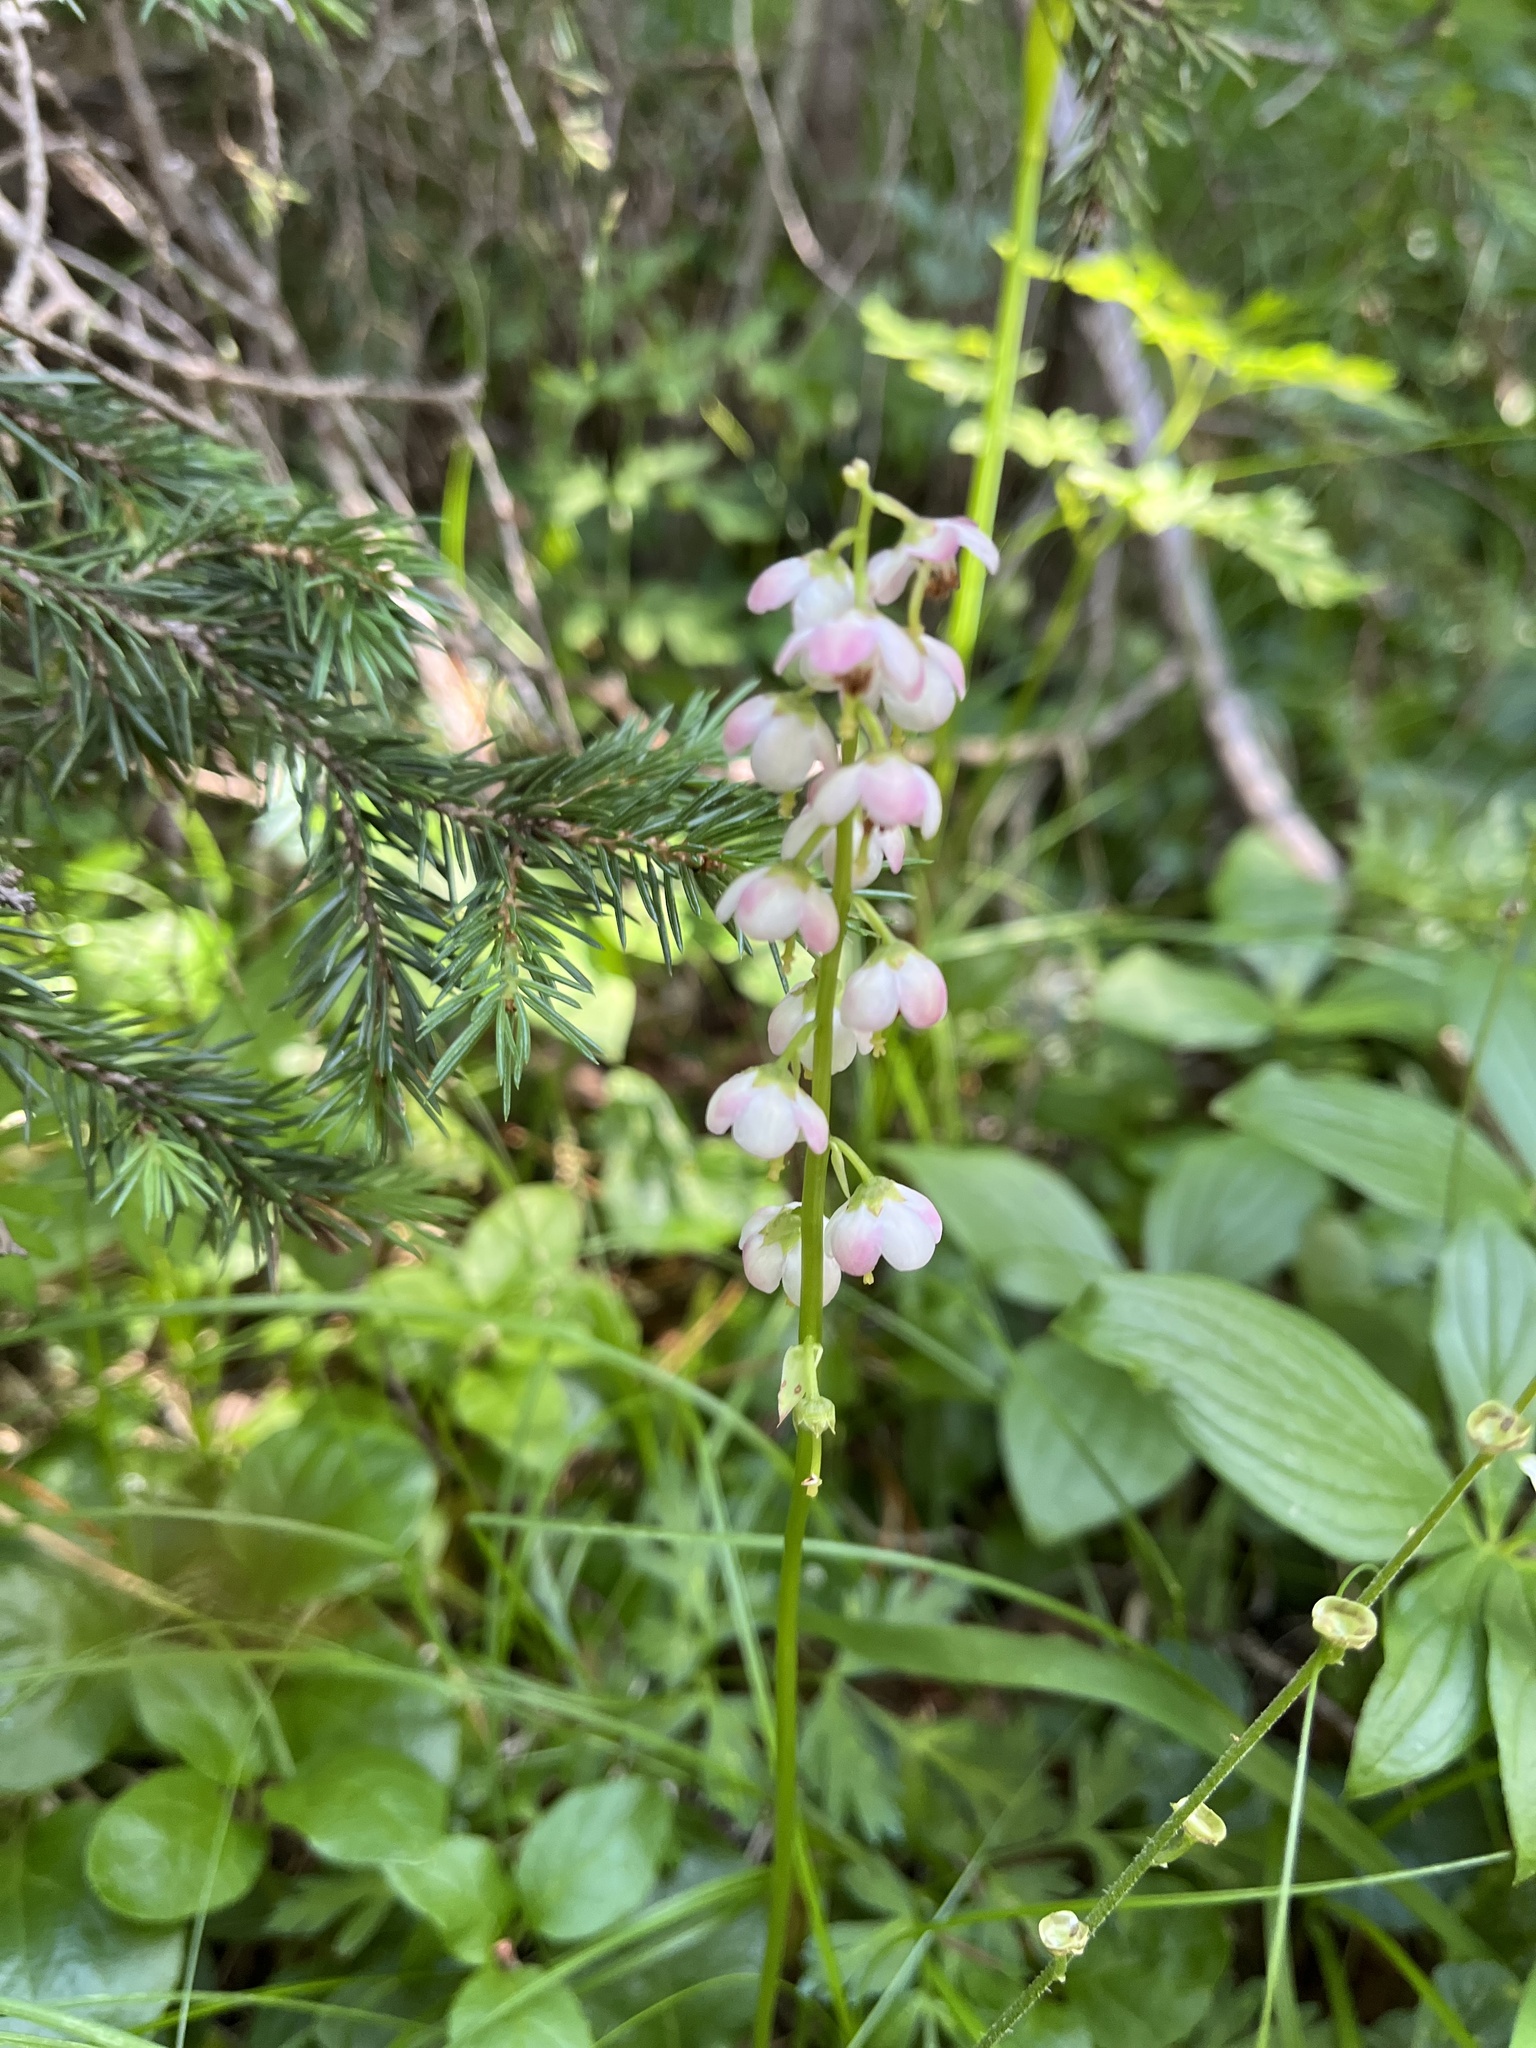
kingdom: Plantae
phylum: Tracheophyta
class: Magnoliopsida
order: Ericales
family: Ericaceae
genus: Pyrola
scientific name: Pyrola asarifolia
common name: Bog wintergreen
